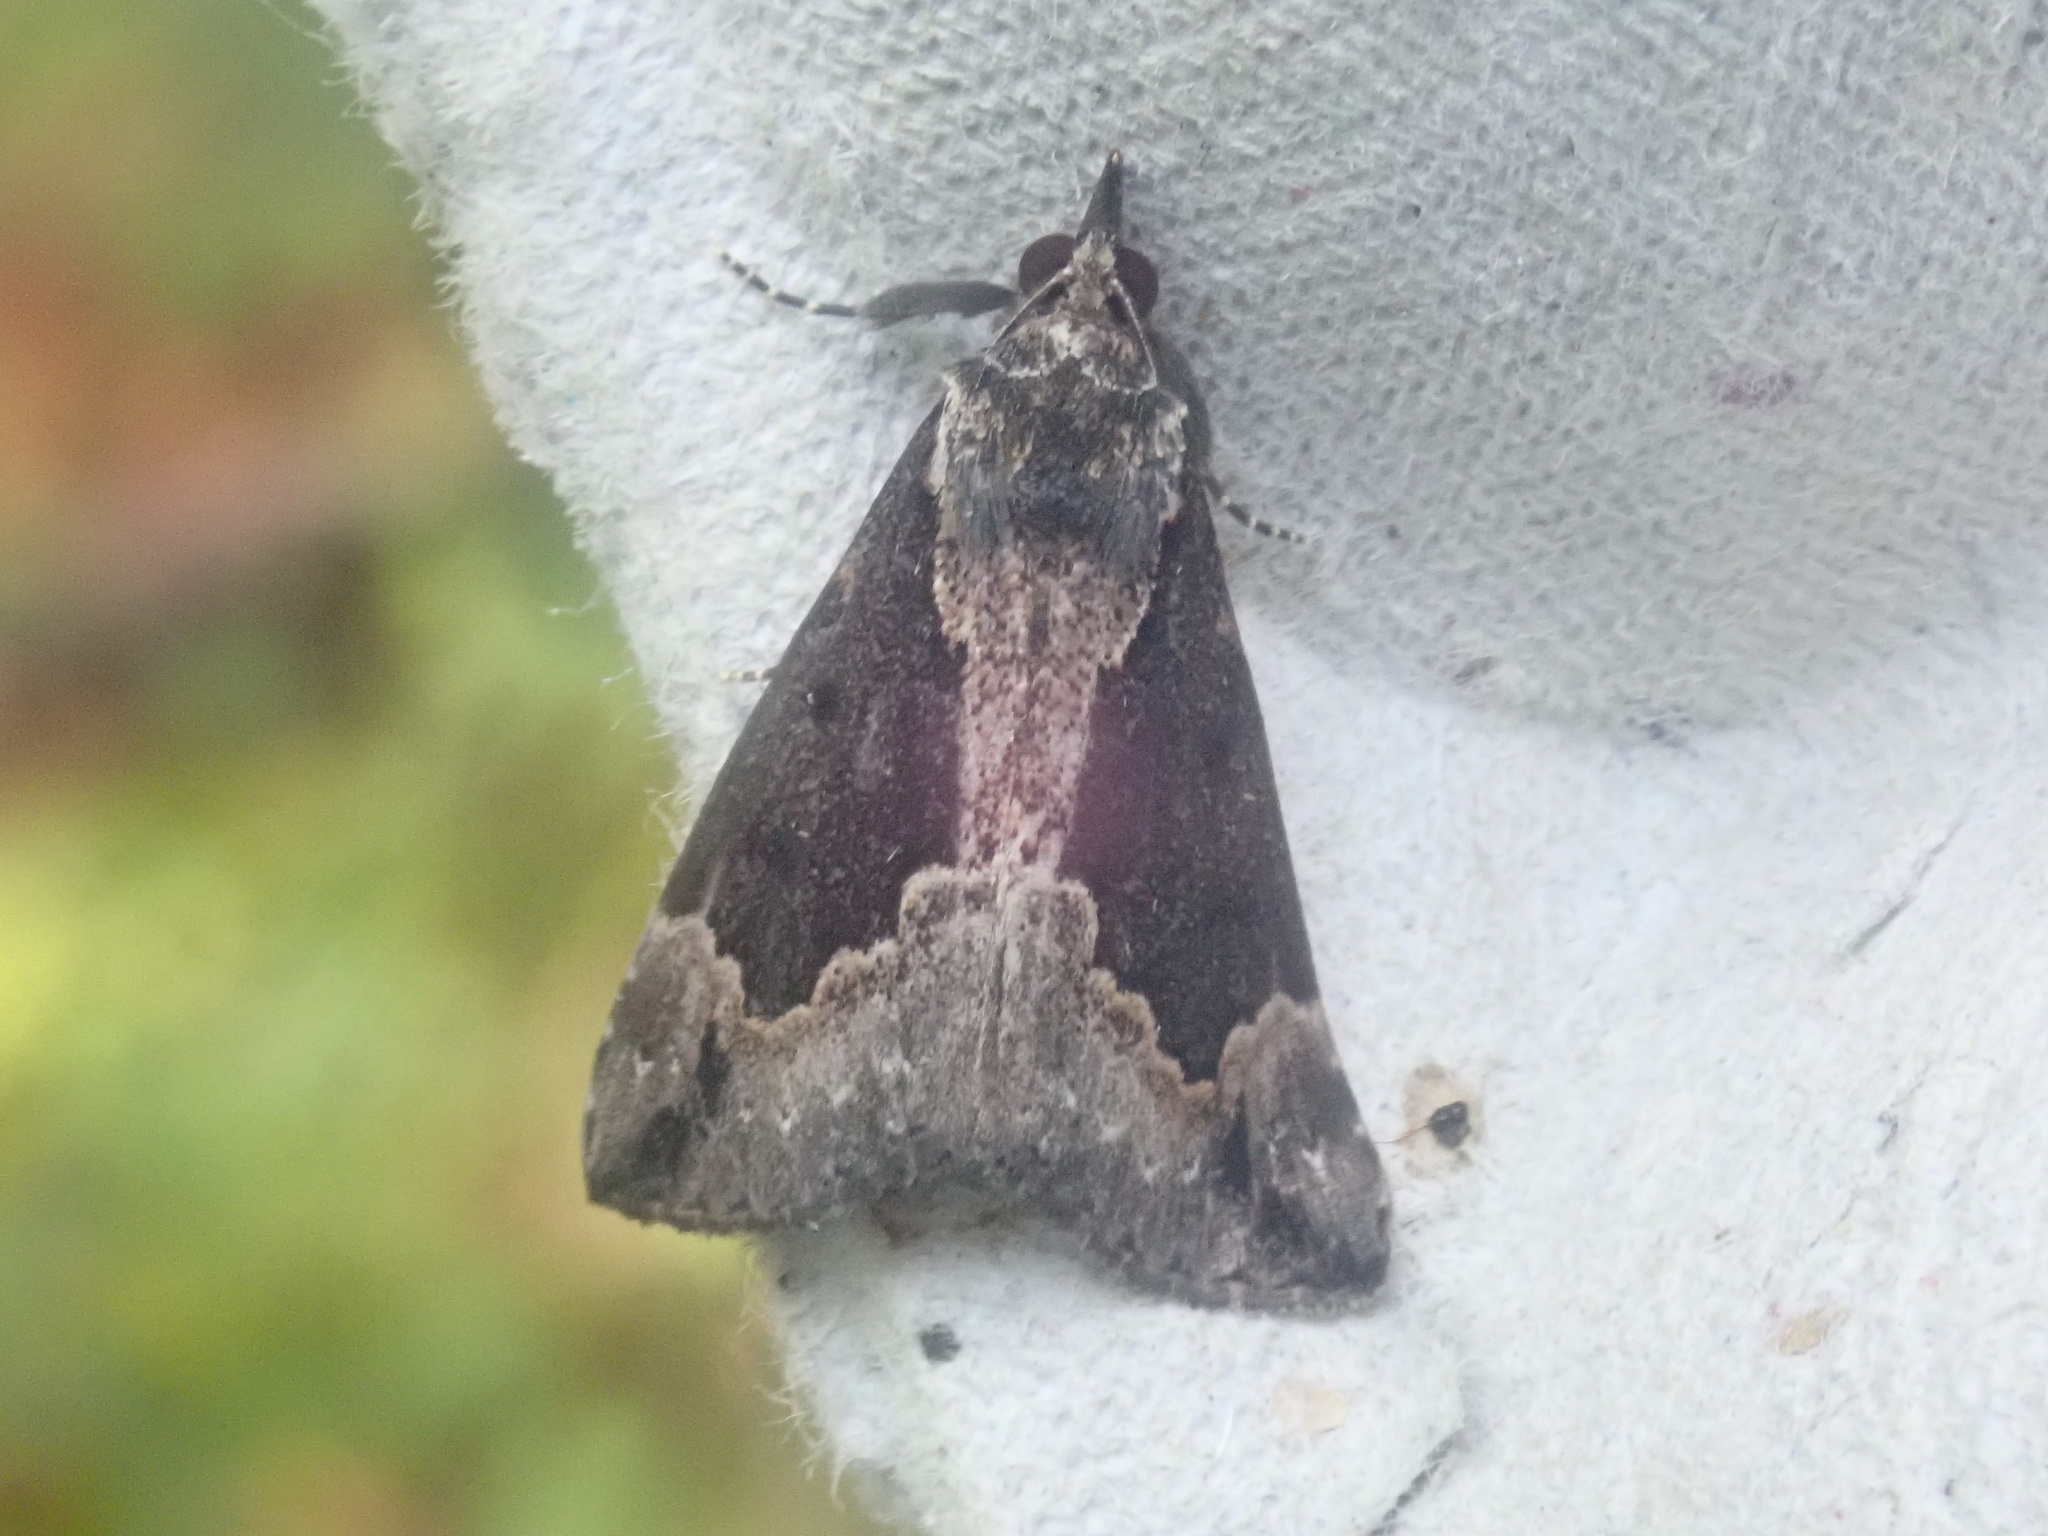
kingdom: Animalia
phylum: Arthropoda
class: Insecta
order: Lepidoptera
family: Erebidae
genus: Hypena
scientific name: Hypena baltimoralis
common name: Baltimore snout
